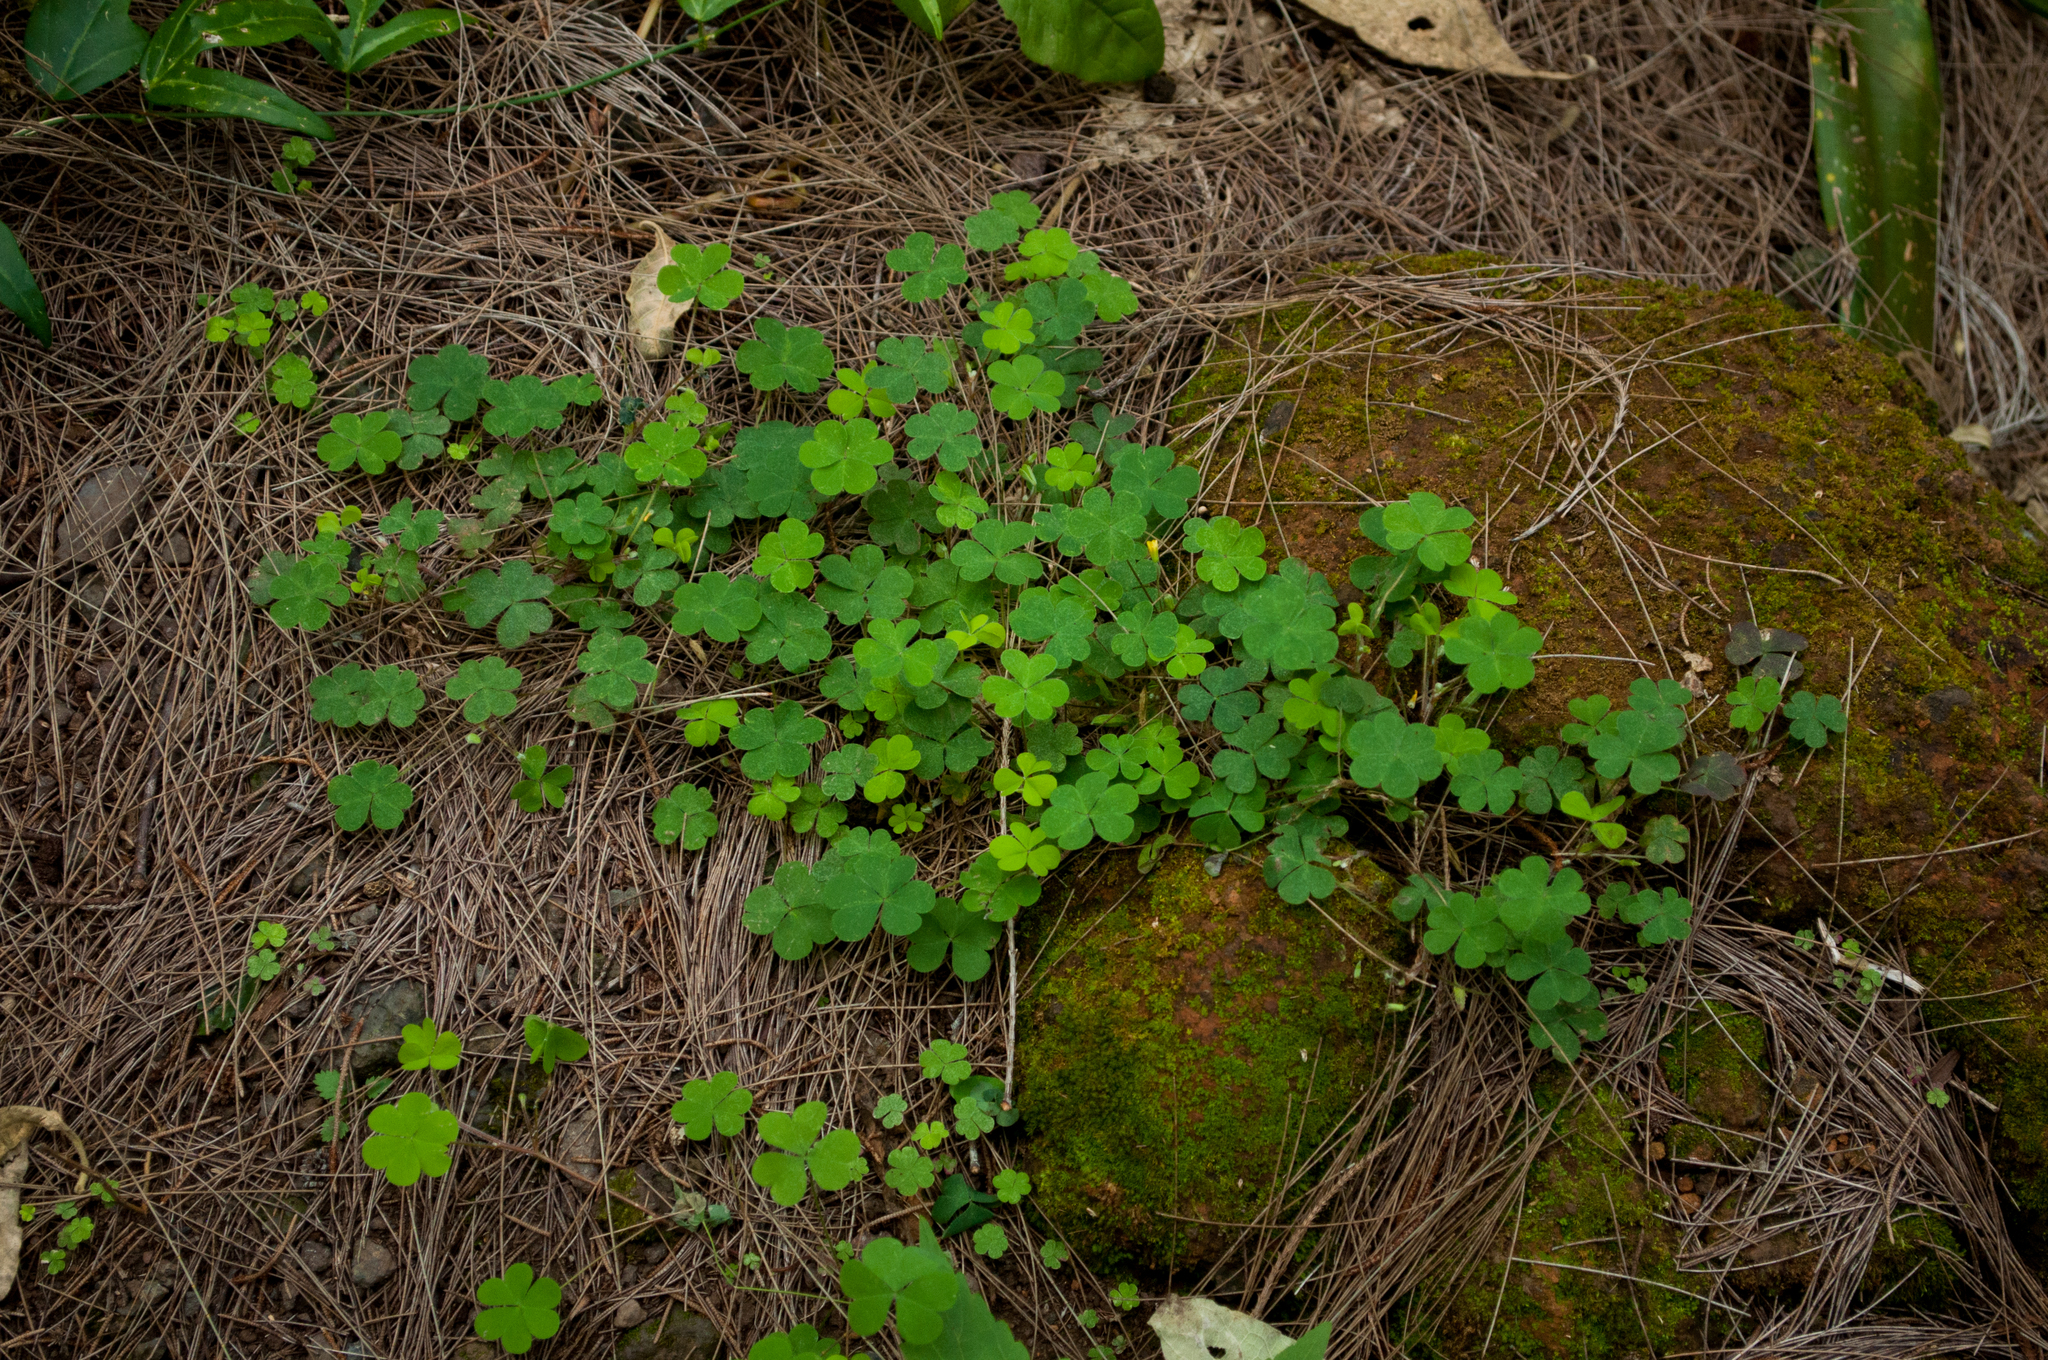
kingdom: Plantae
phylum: Tracheophyta
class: Magnoliopsida
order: Oxalidales
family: Oxalidaceae
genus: Oxalis
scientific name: Oxalis corniculata
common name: Procumbent yellow-sorrel
